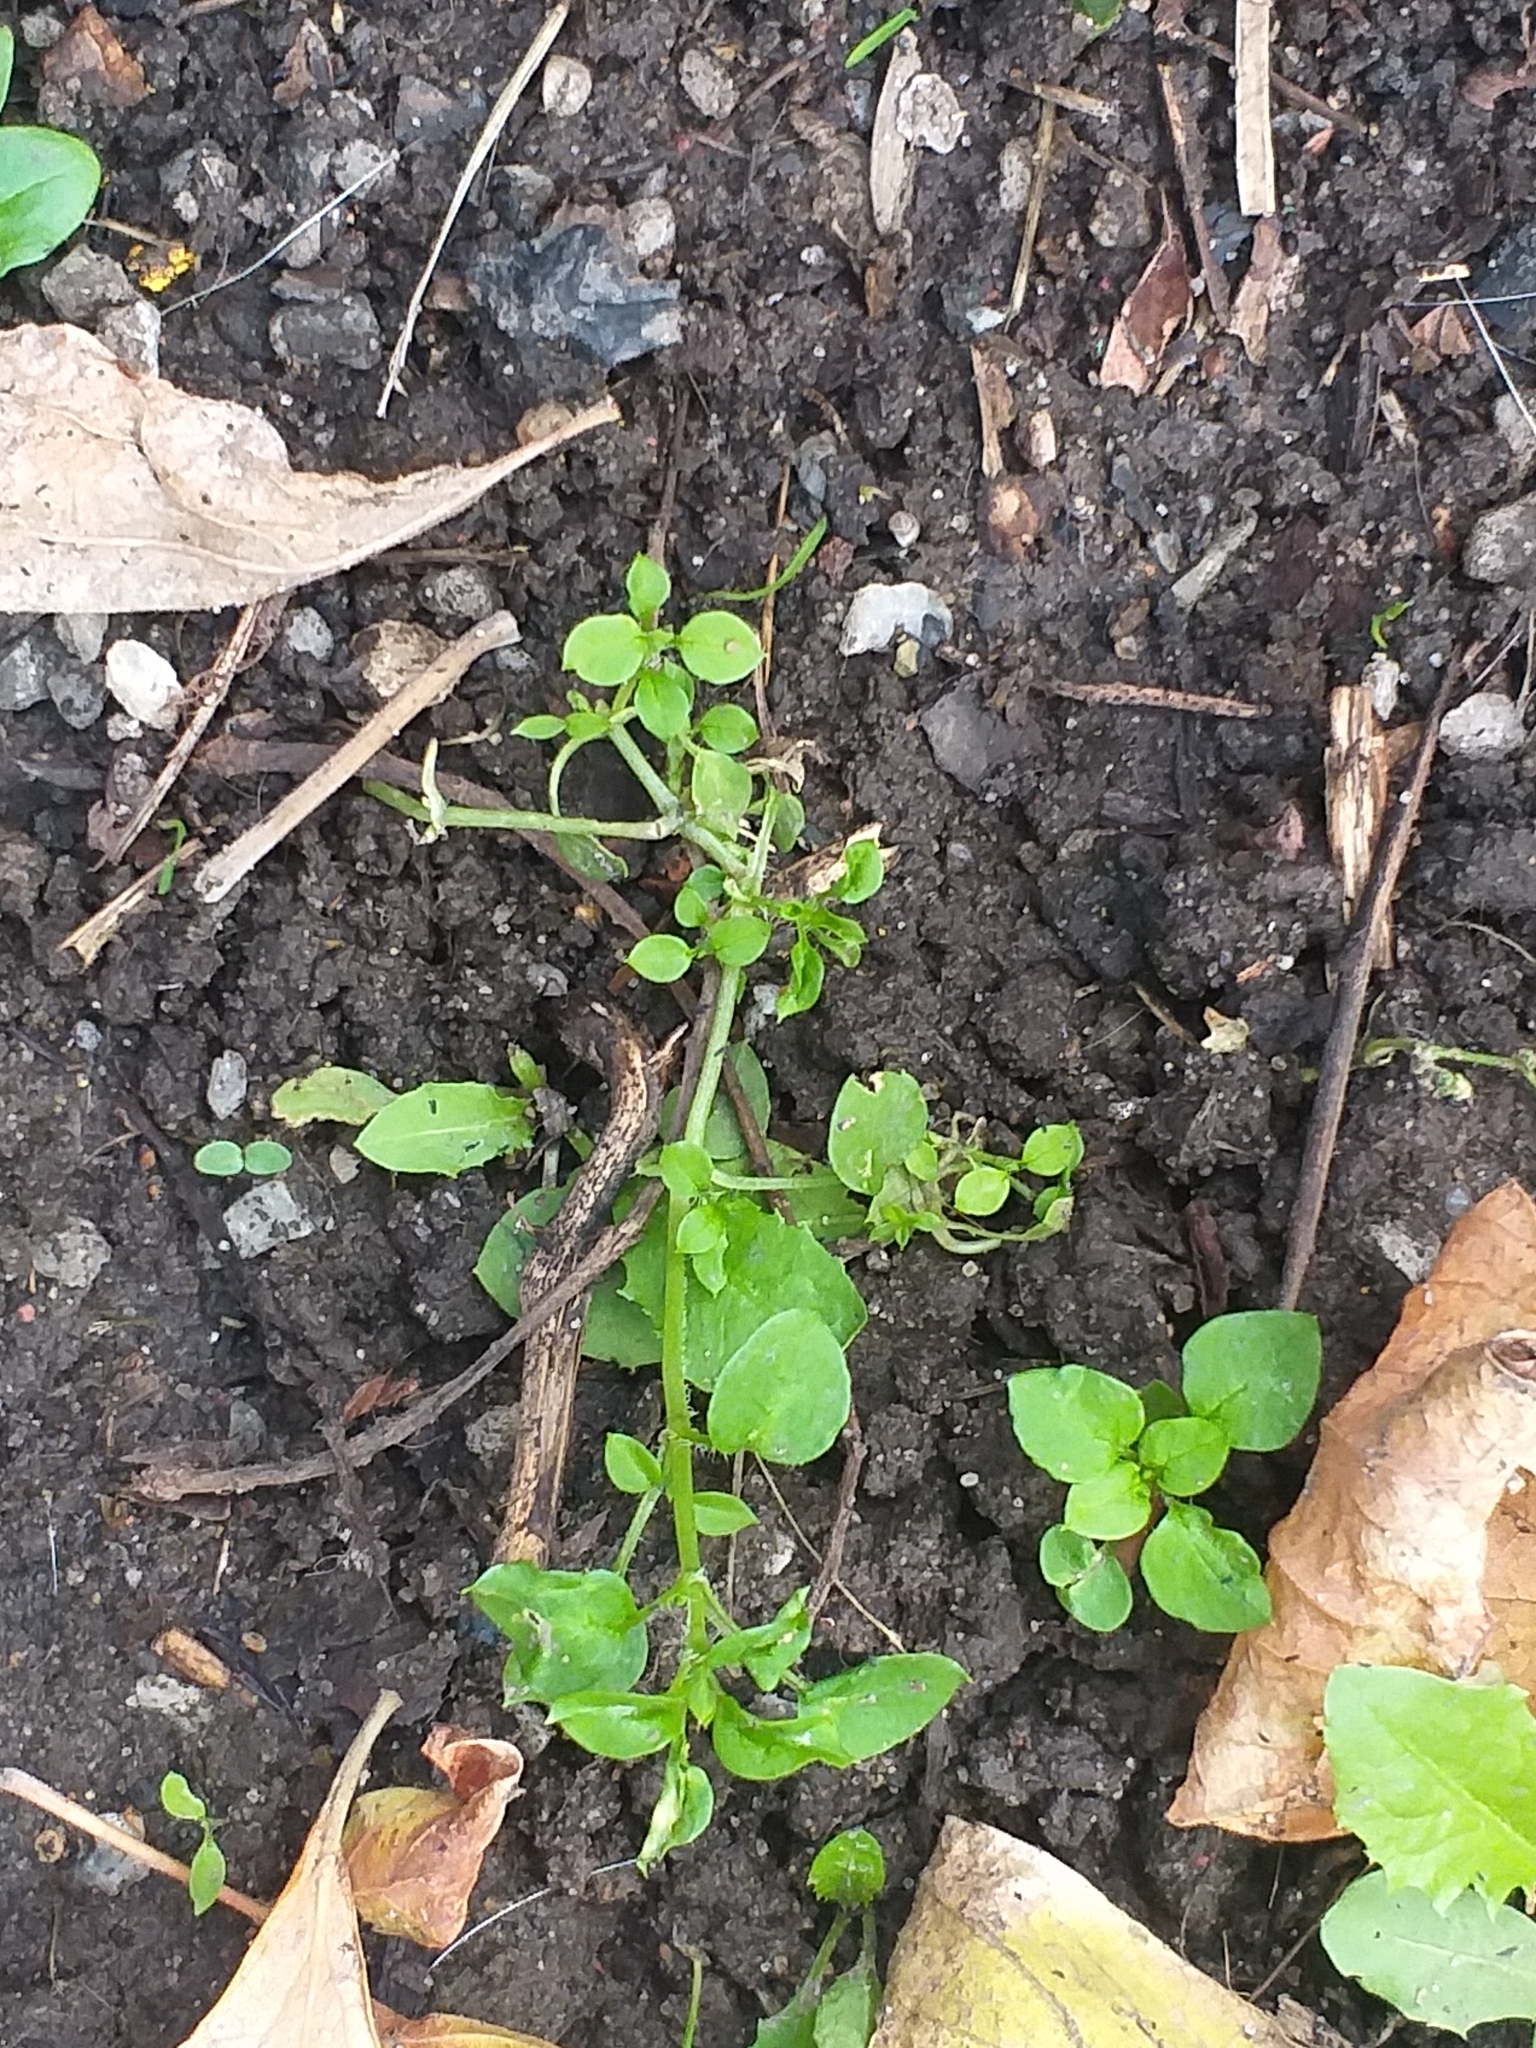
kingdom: Plantae
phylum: Tracheophyta
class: Magnoliopsida
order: Caryophyllales
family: Caryophyllaceae
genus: Stellaria
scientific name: Stellaria media
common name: Common chickweed
